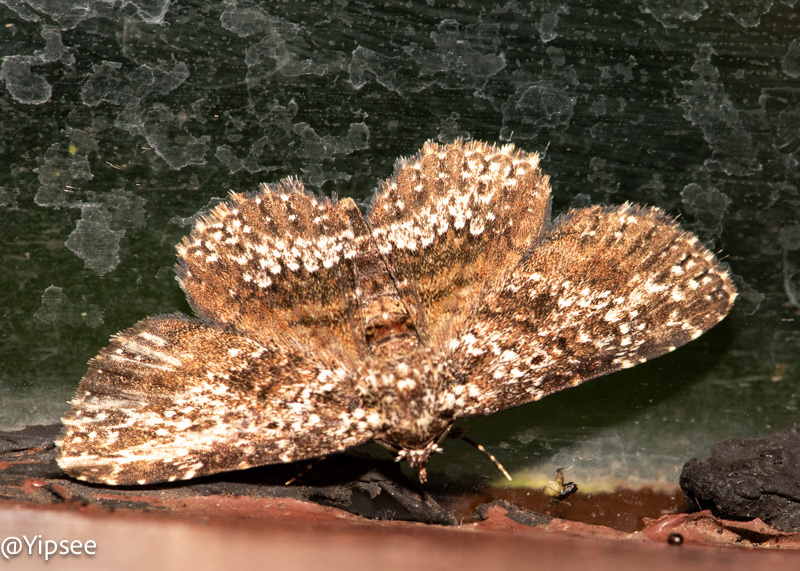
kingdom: Animalia
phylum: Arthropoda
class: Insecta
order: Lepidoptera
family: Erebidae
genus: Caduca
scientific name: Caduca albopunctata
